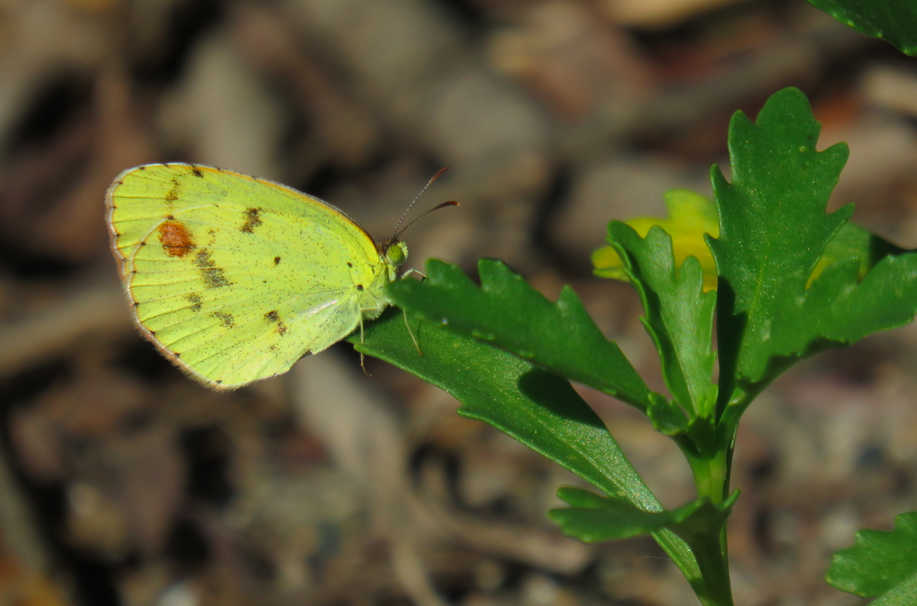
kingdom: Animalia
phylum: Arthropoda
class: Insecta
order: Lepidoptera
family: Pieridae
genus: Pyrisitia
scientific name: Pyrisitia lisa
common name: Little yellow
